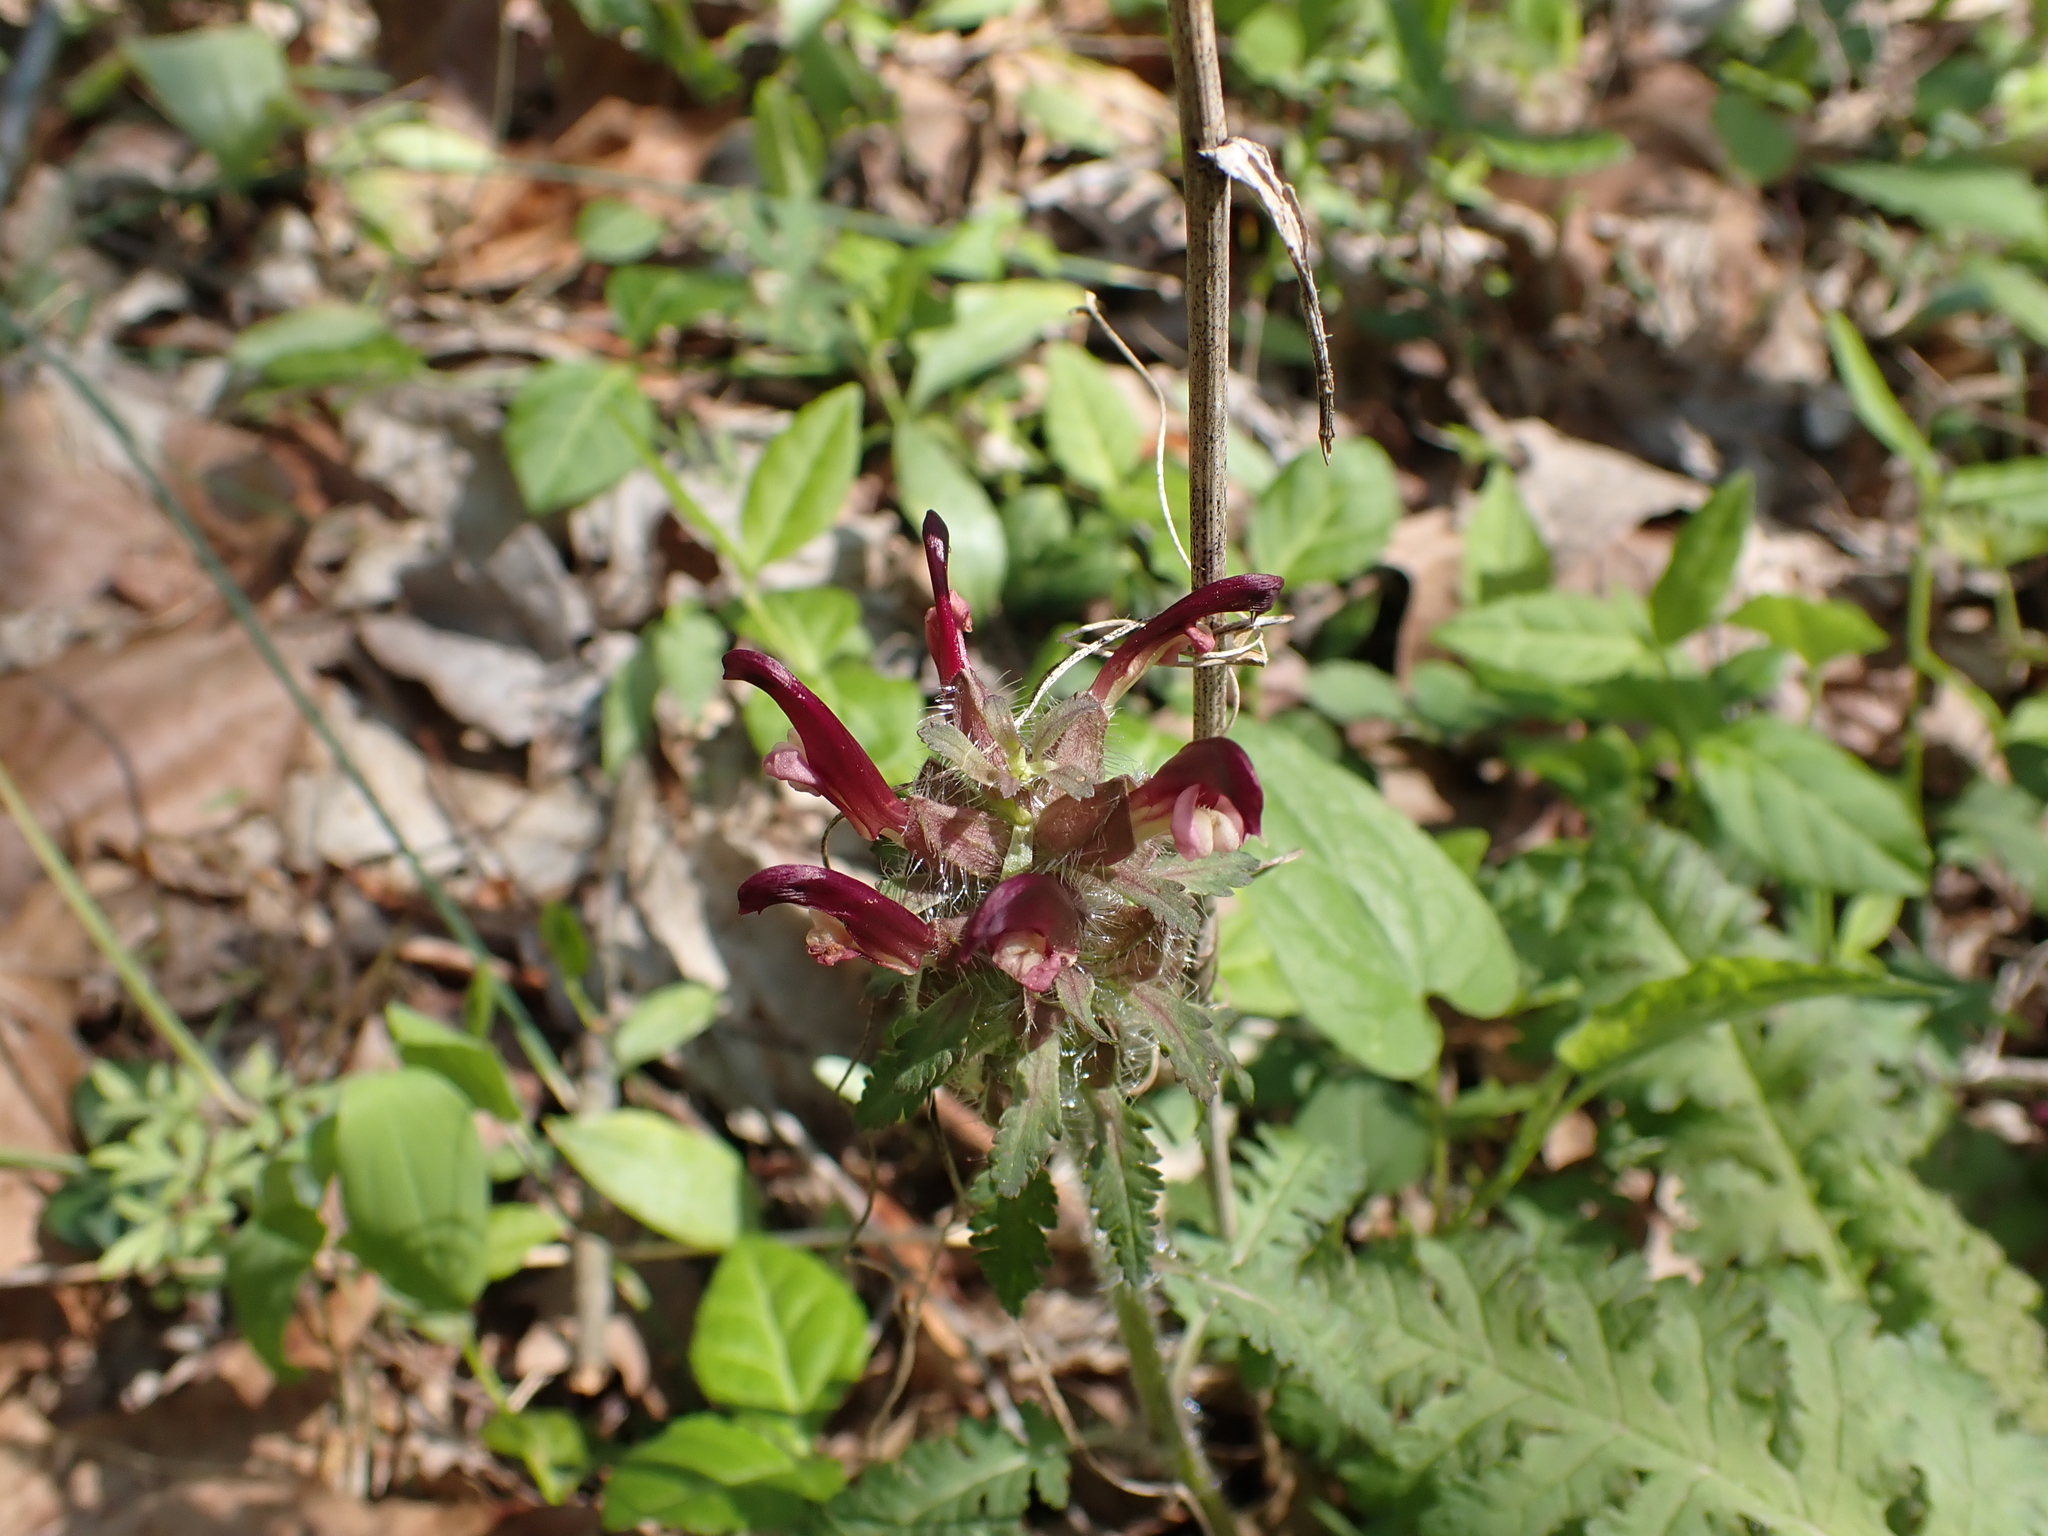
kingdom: Plantae
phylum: Tracheophyta
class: Magnoliopsida
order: Lamiales
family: Orobanchaceae
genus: Pedicularis
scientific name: Pedicularis canadensis
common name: Early lousewort
